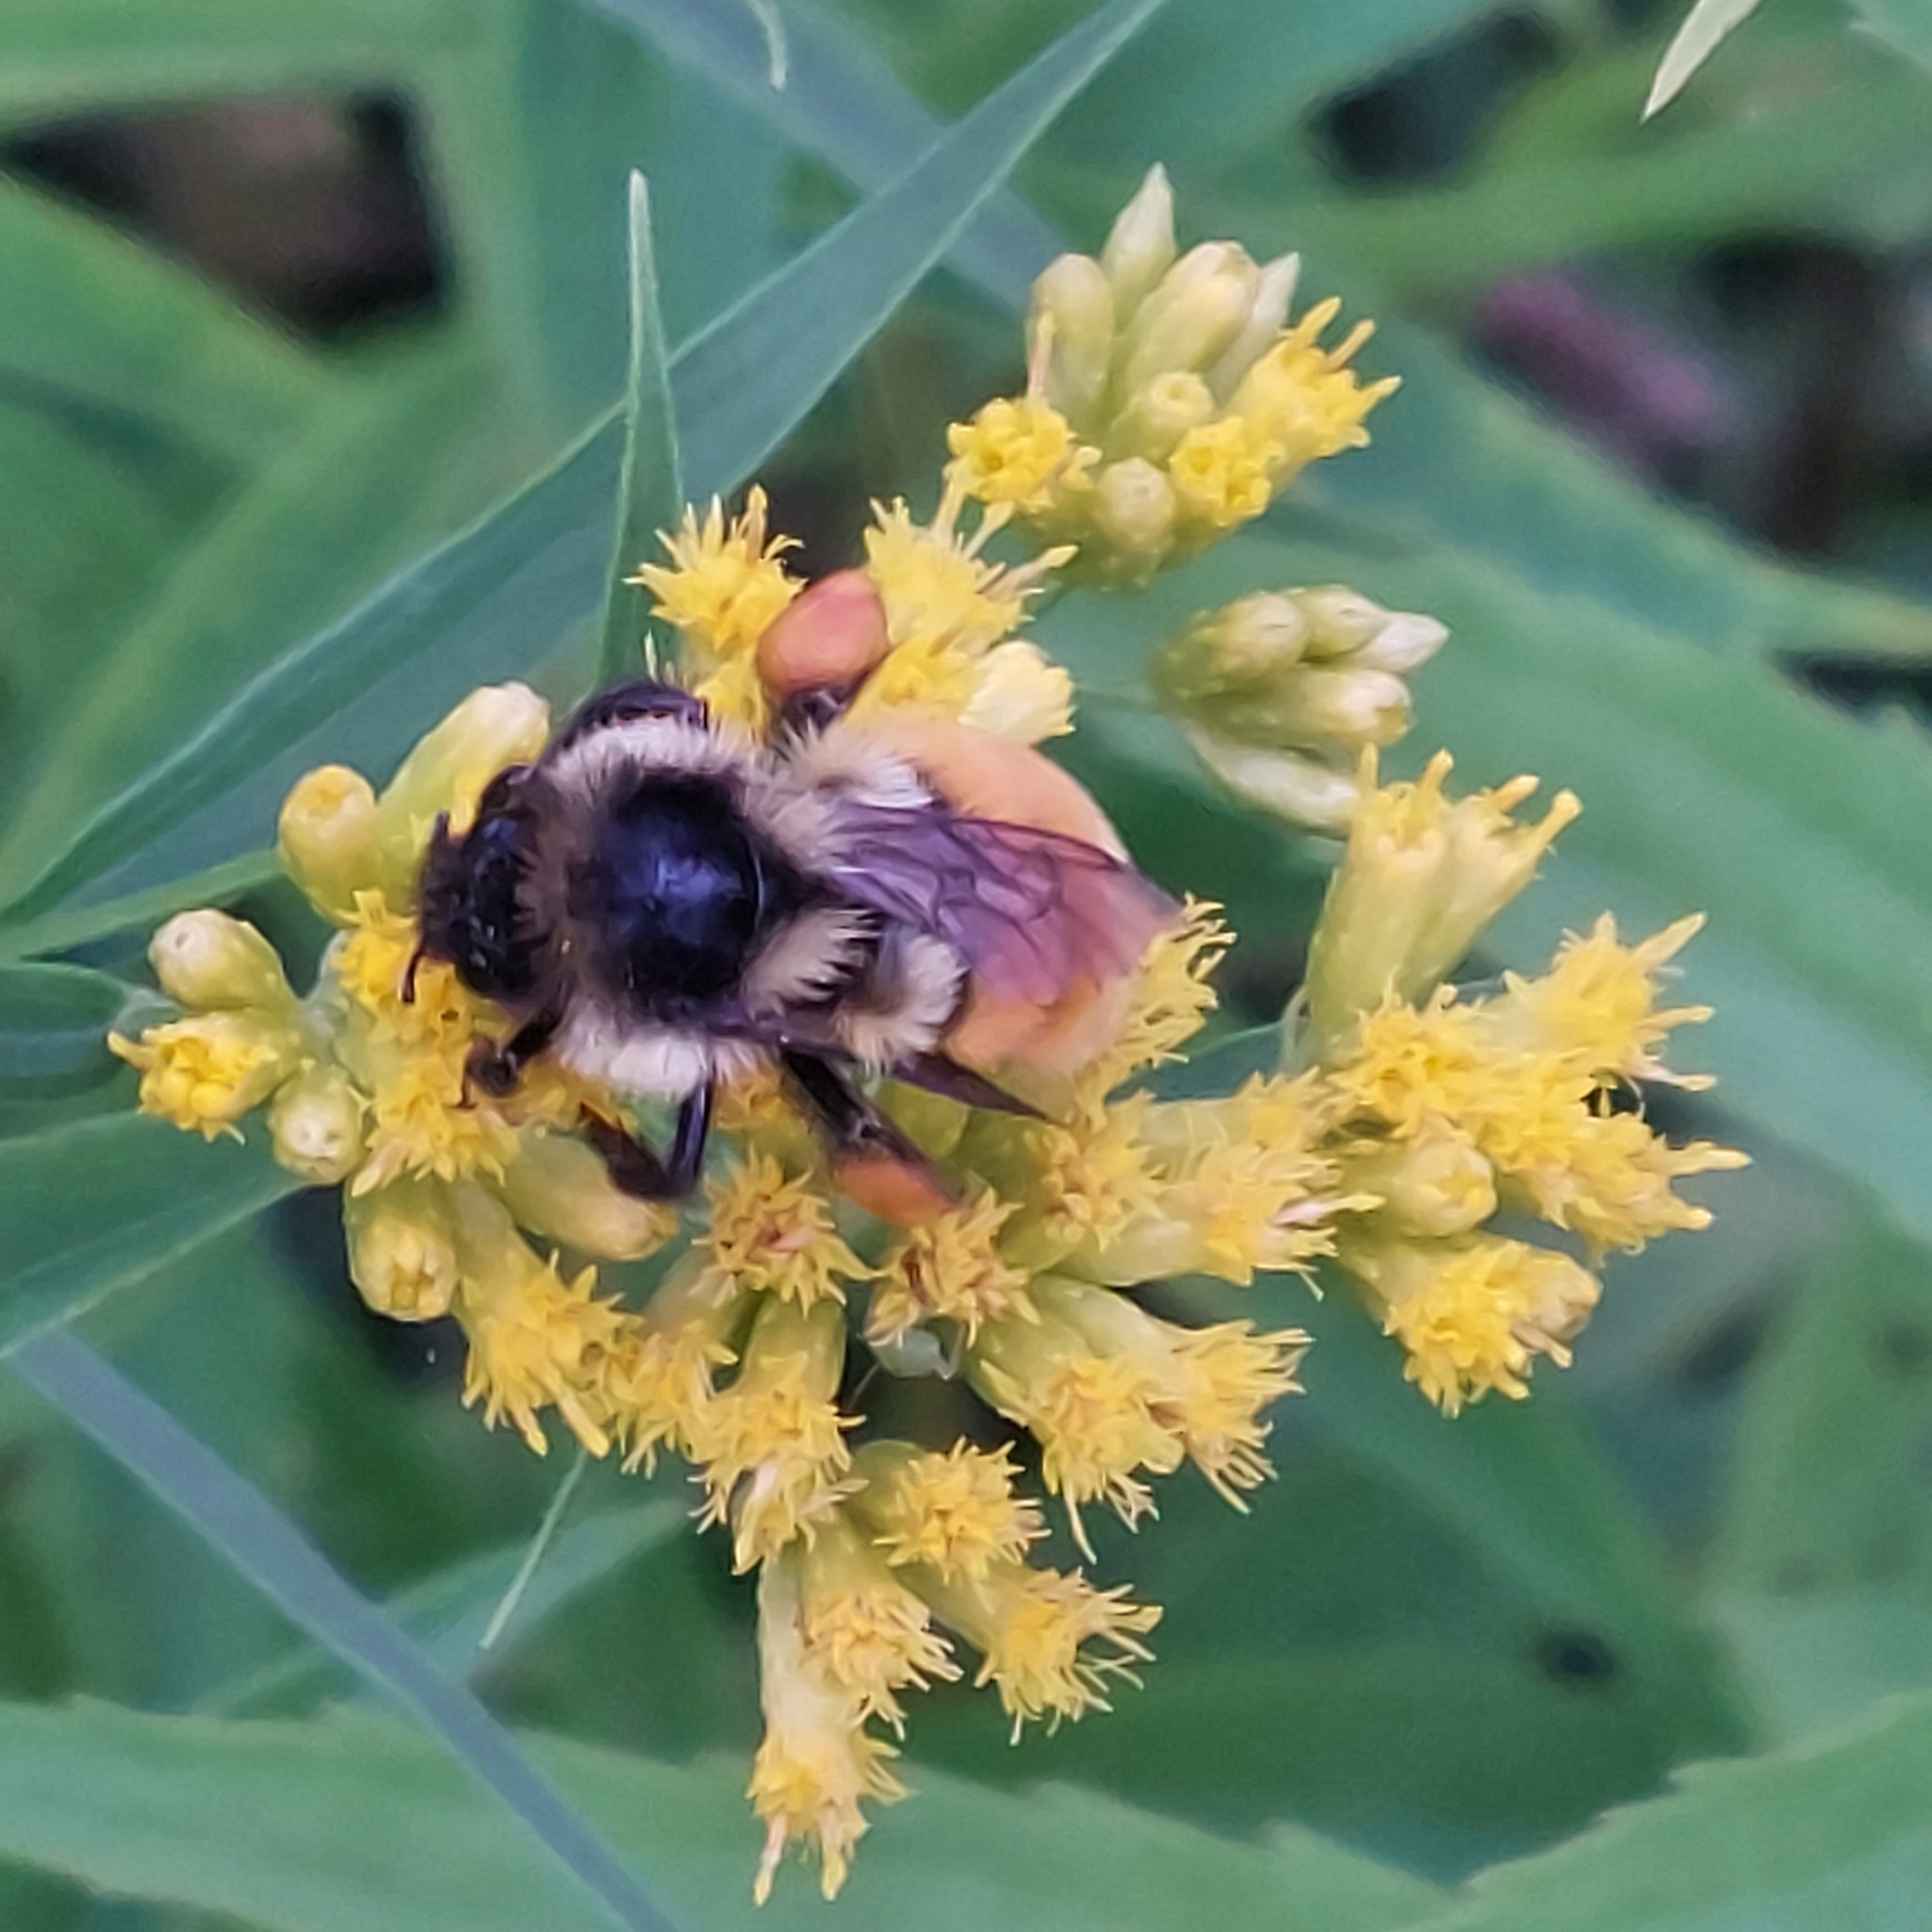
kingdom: Animalia
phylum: Arthropoda
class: Insecta
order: Hymenoptera
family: Apidae
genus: Bombus
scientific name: Bombus ternarius
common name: Tri-colored bumble bee
